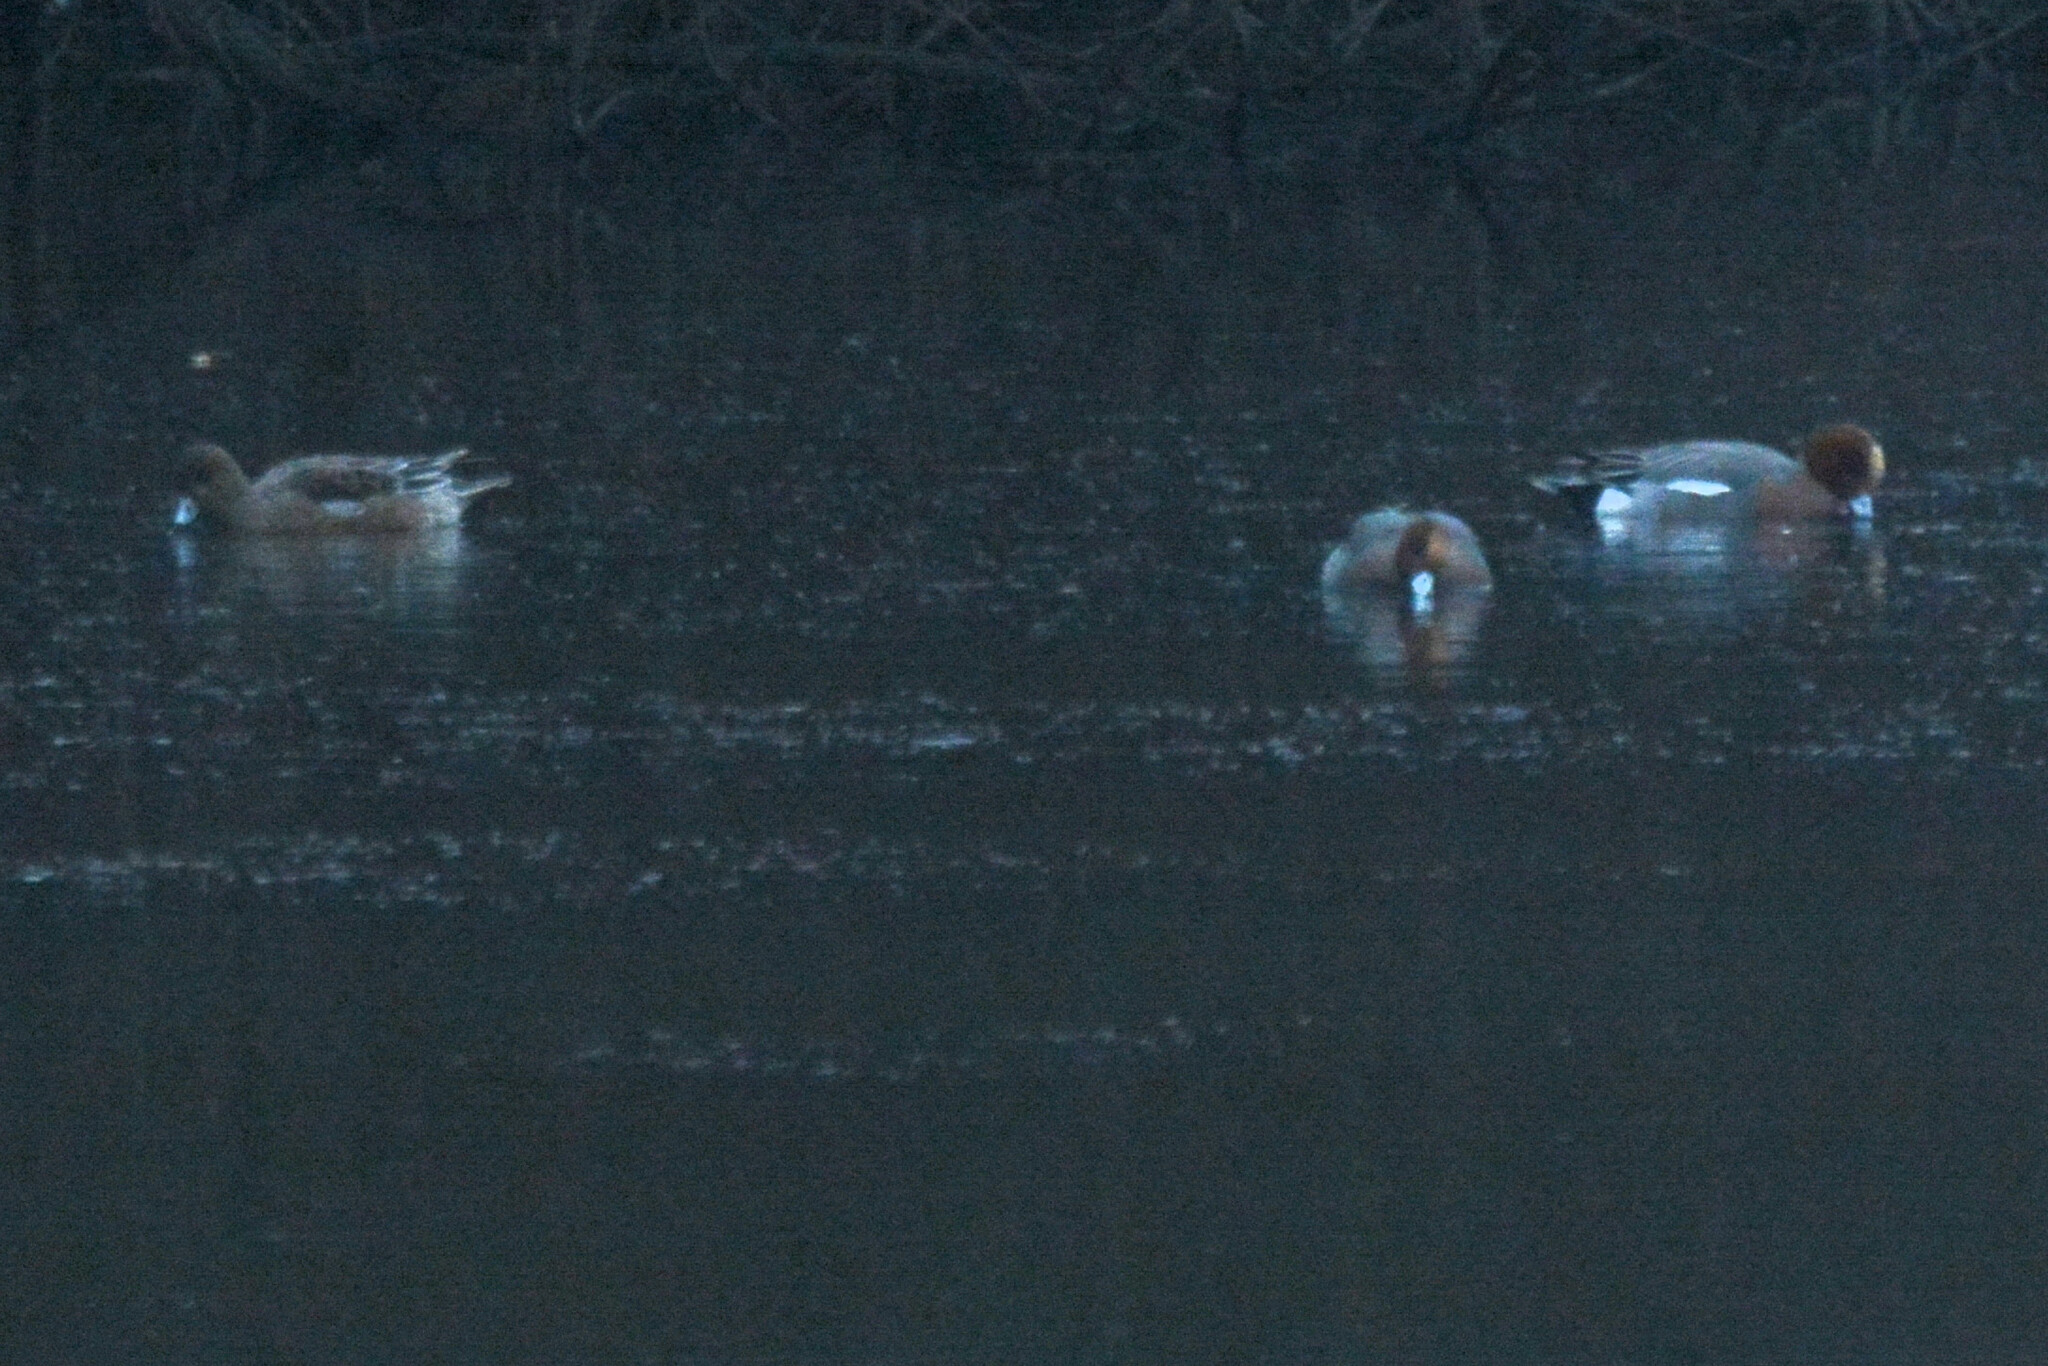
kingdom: Animalia
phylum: Chordata
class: Aves
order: Anseriformes
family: Anatidae
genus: Mareca
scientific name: Mareca penelope
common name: Eurasian wigeon
